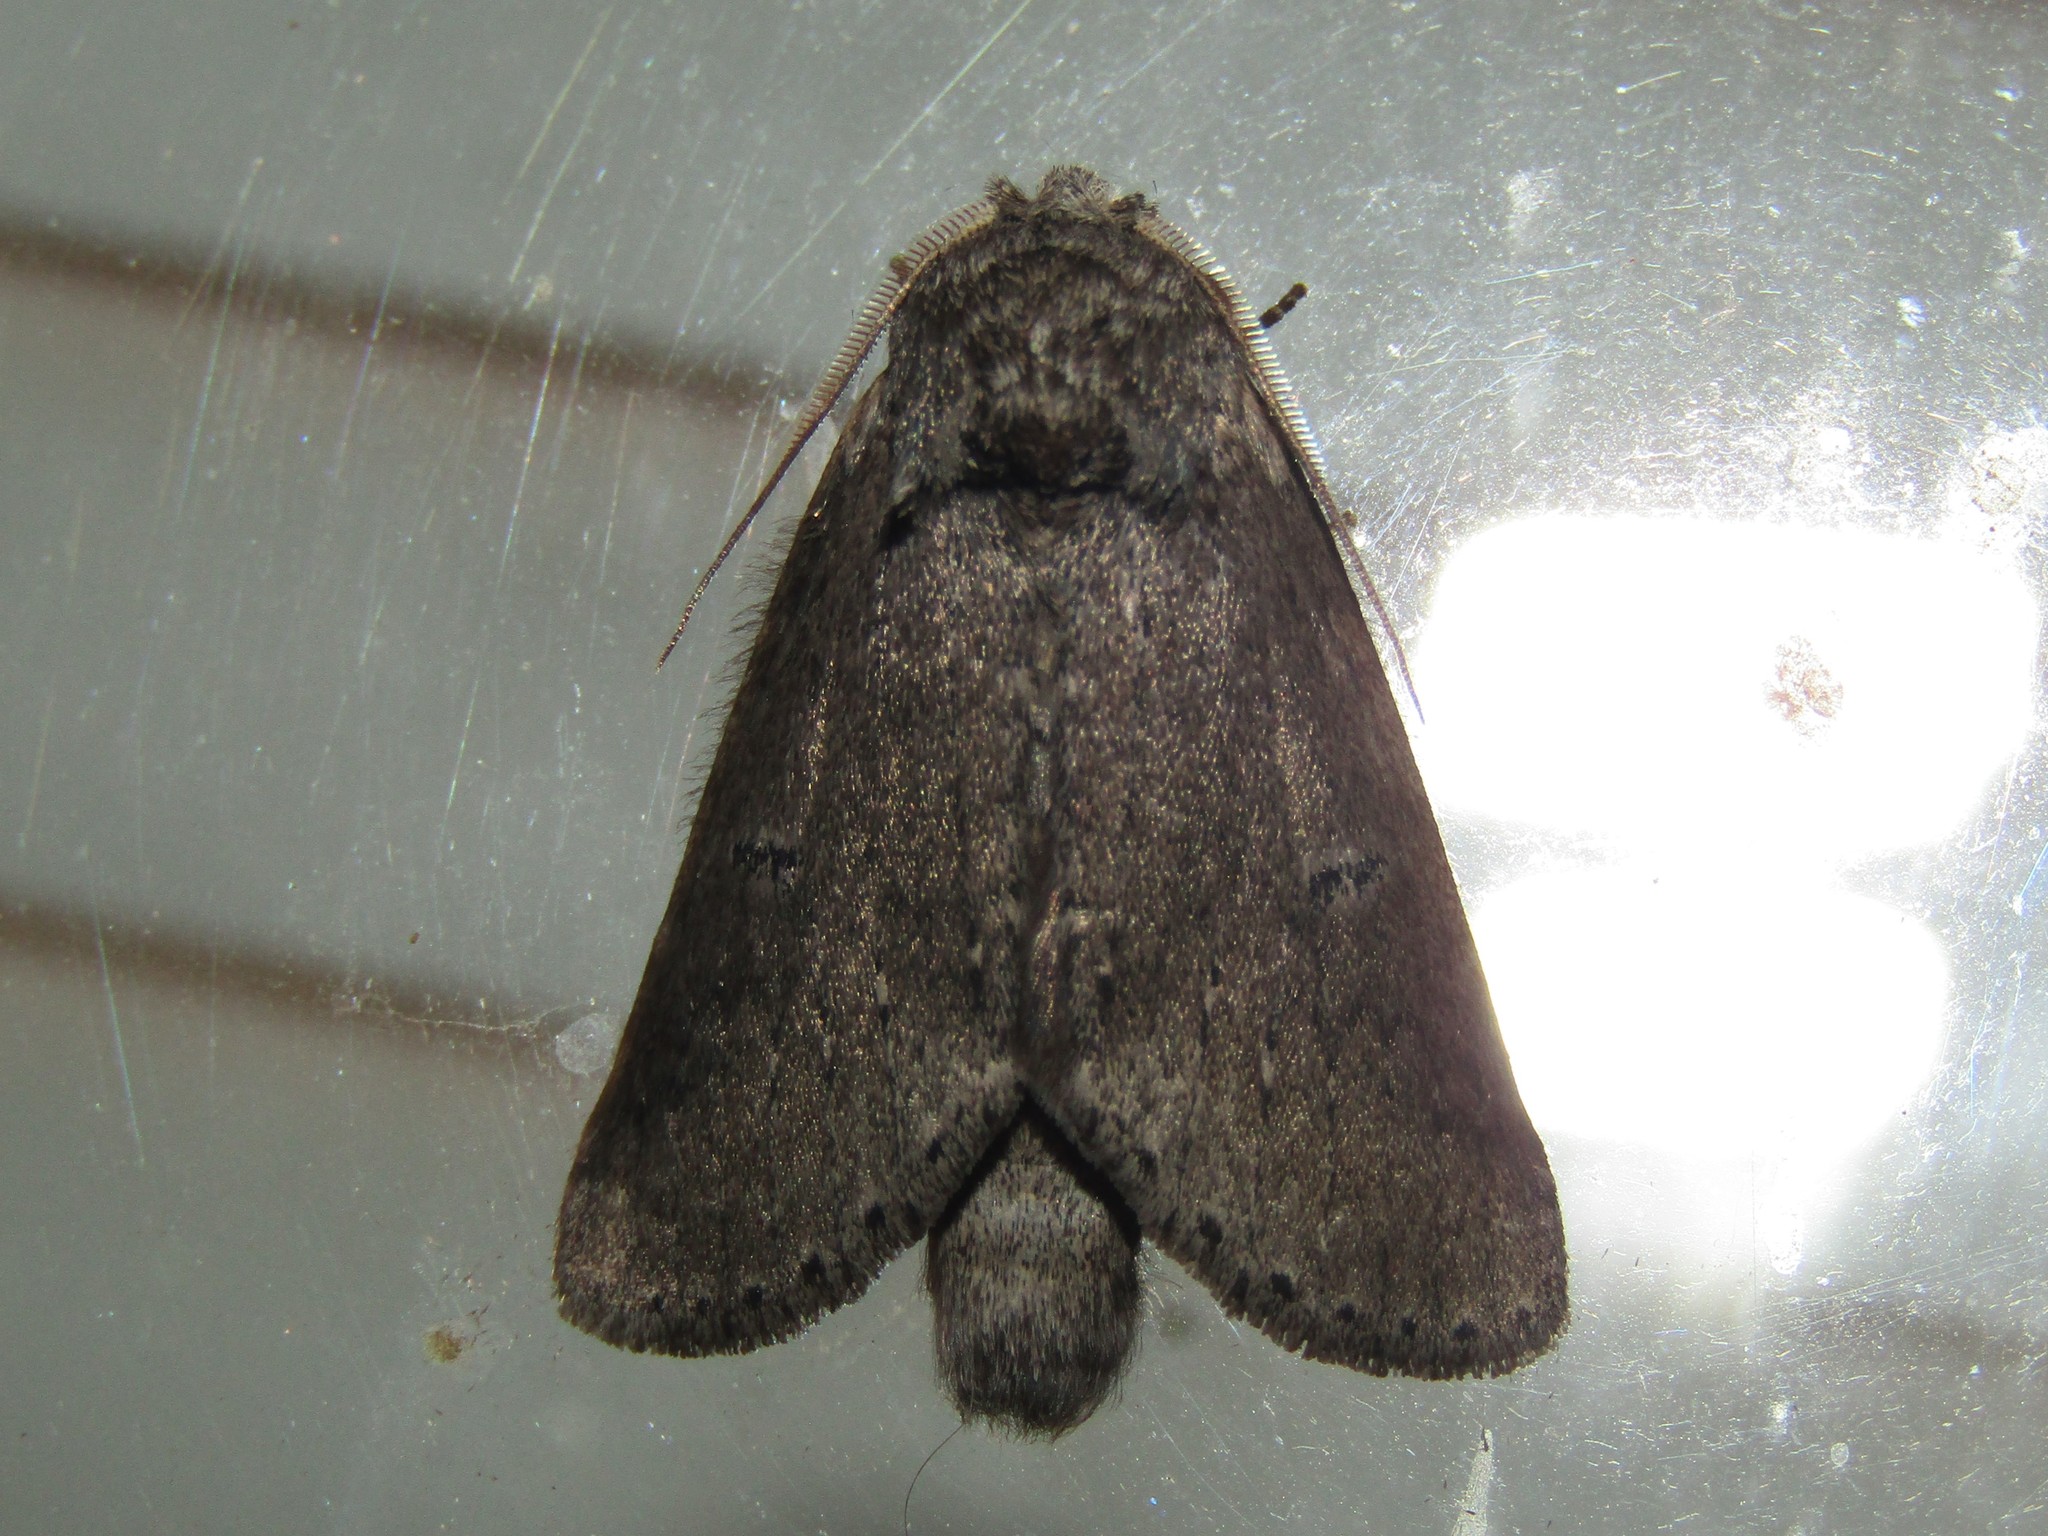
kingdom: Animalia
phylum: Arthropoda
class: Insecta
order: Lepidoptera
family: Notodontidae
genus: Lochmaeus
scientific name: Lochmaeus manteo
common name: Variable oakleaf caterpillar moth
